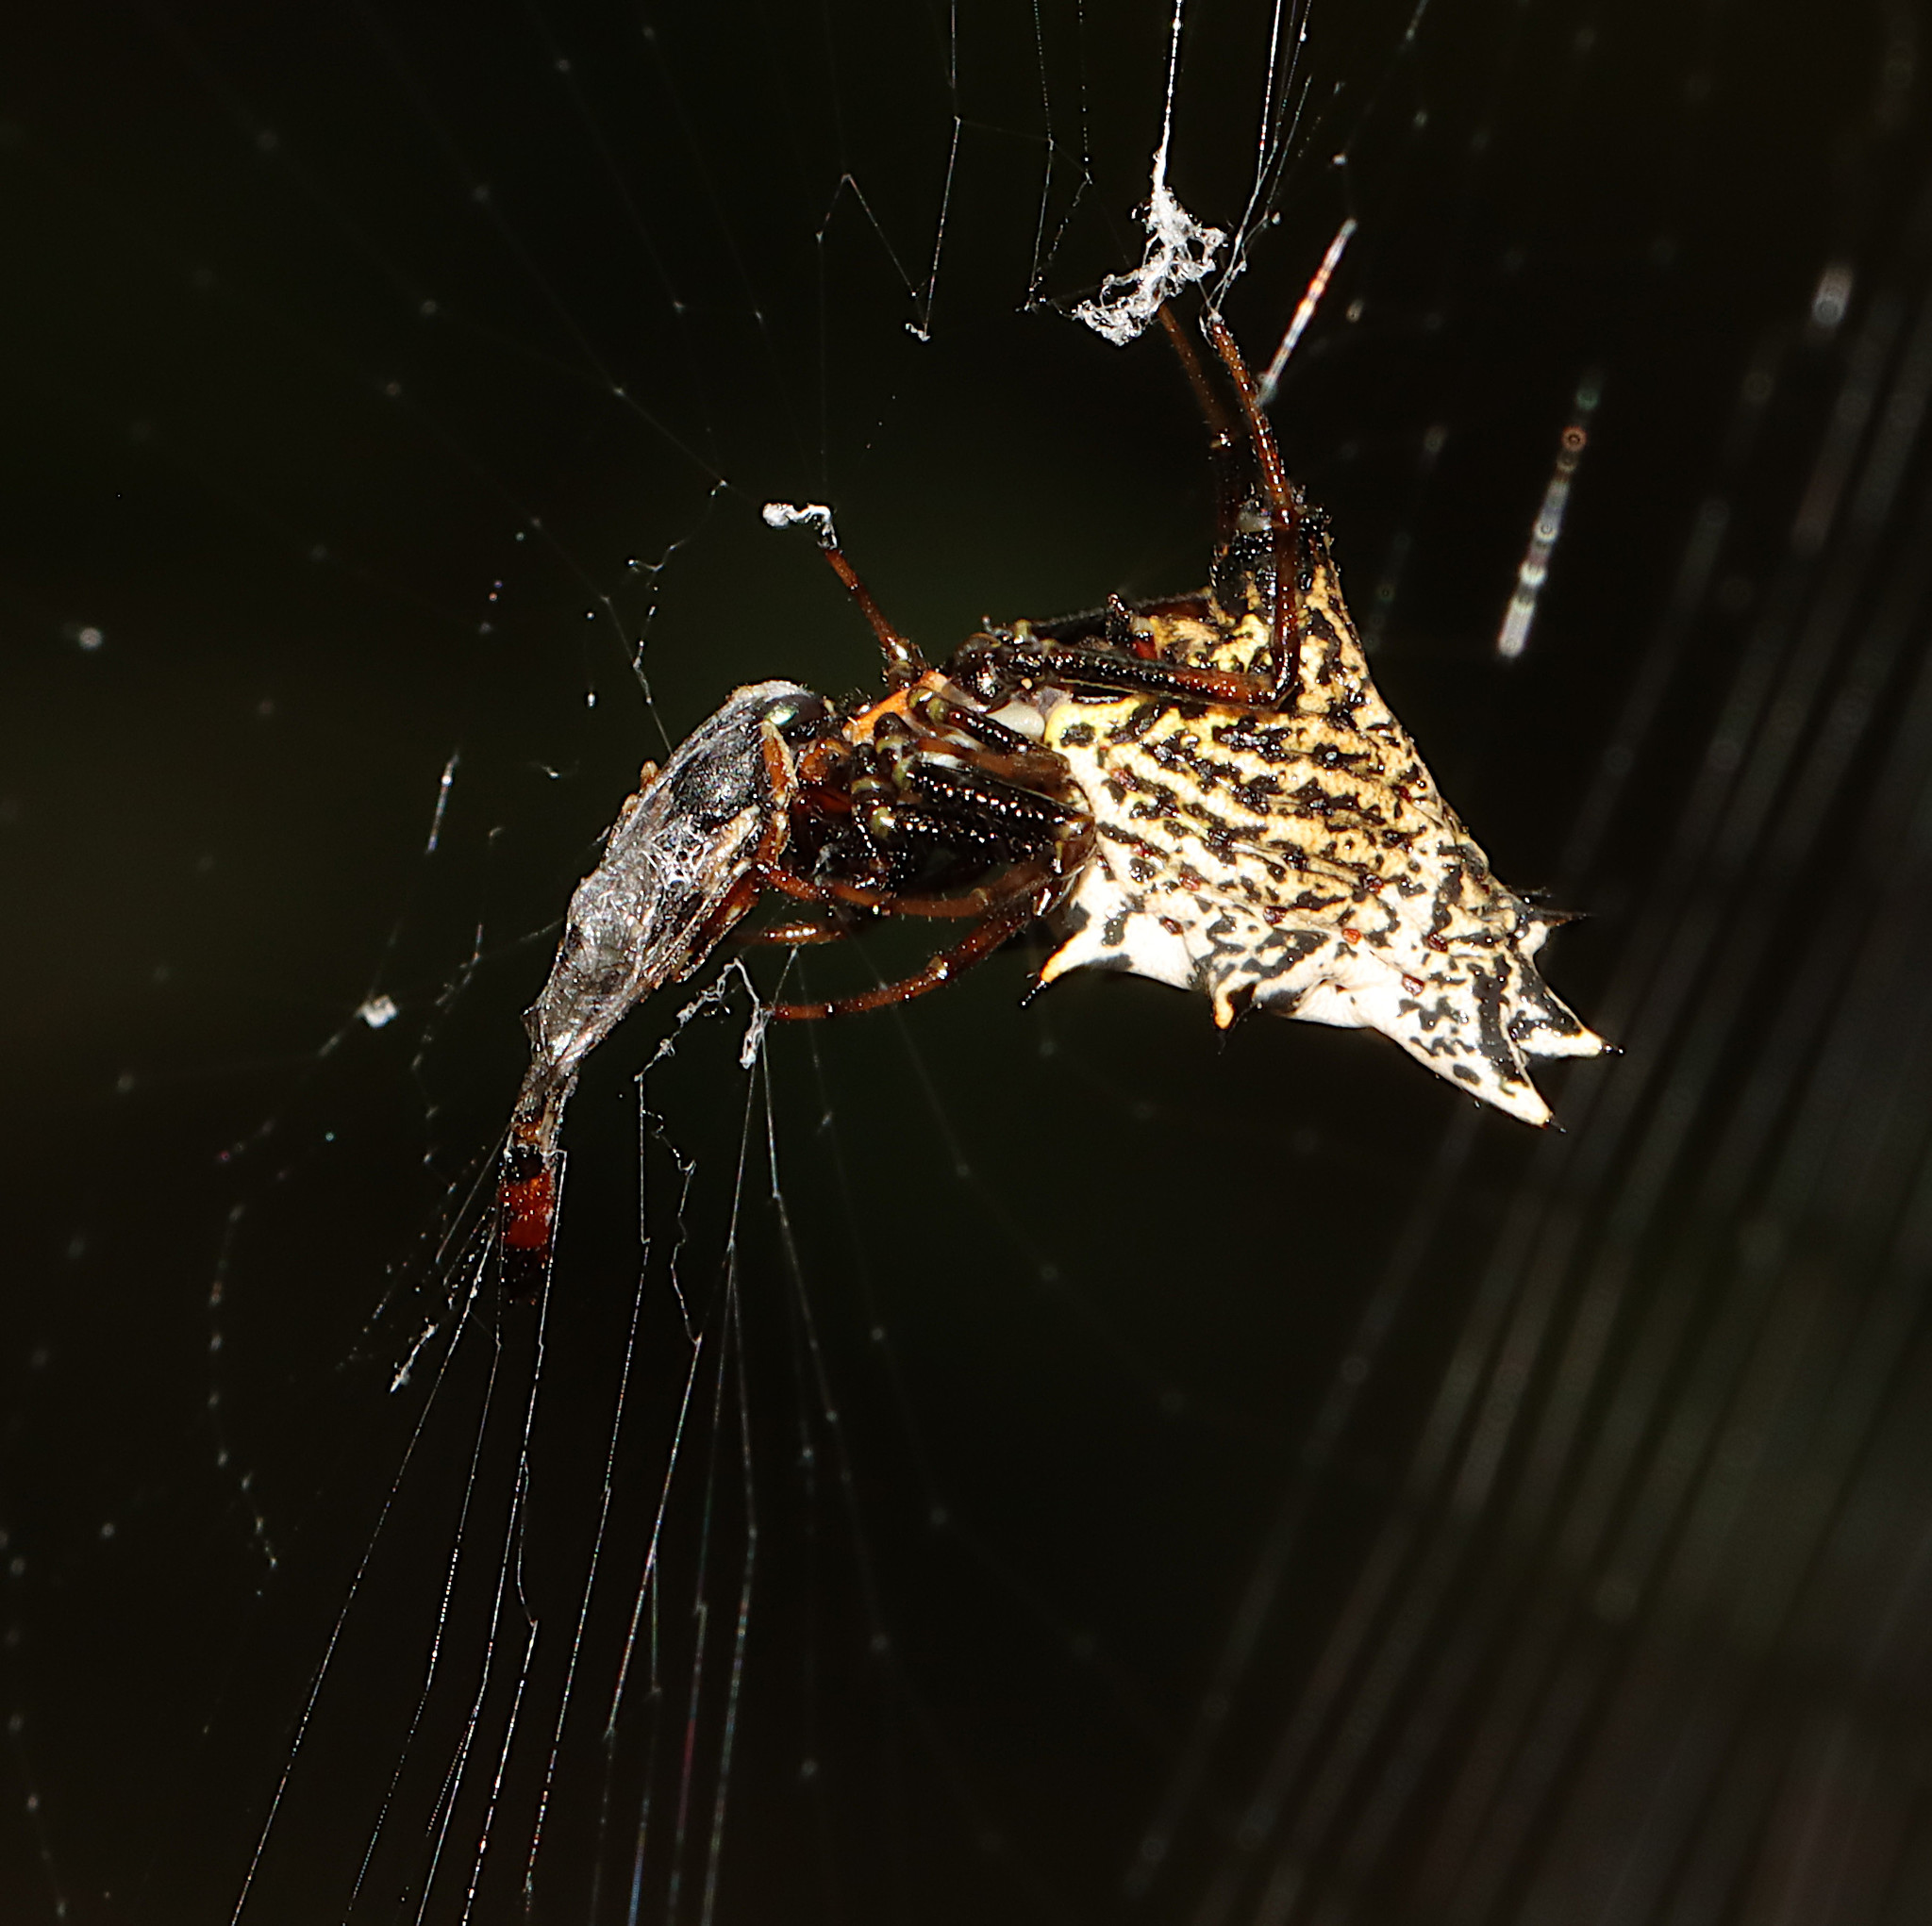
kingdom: Animalia
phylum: Arthropoda
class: Arachnida
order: Araneae
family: Araneidae
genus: Micrathena
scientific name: Micrathena gracilis
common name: Orb weavers
